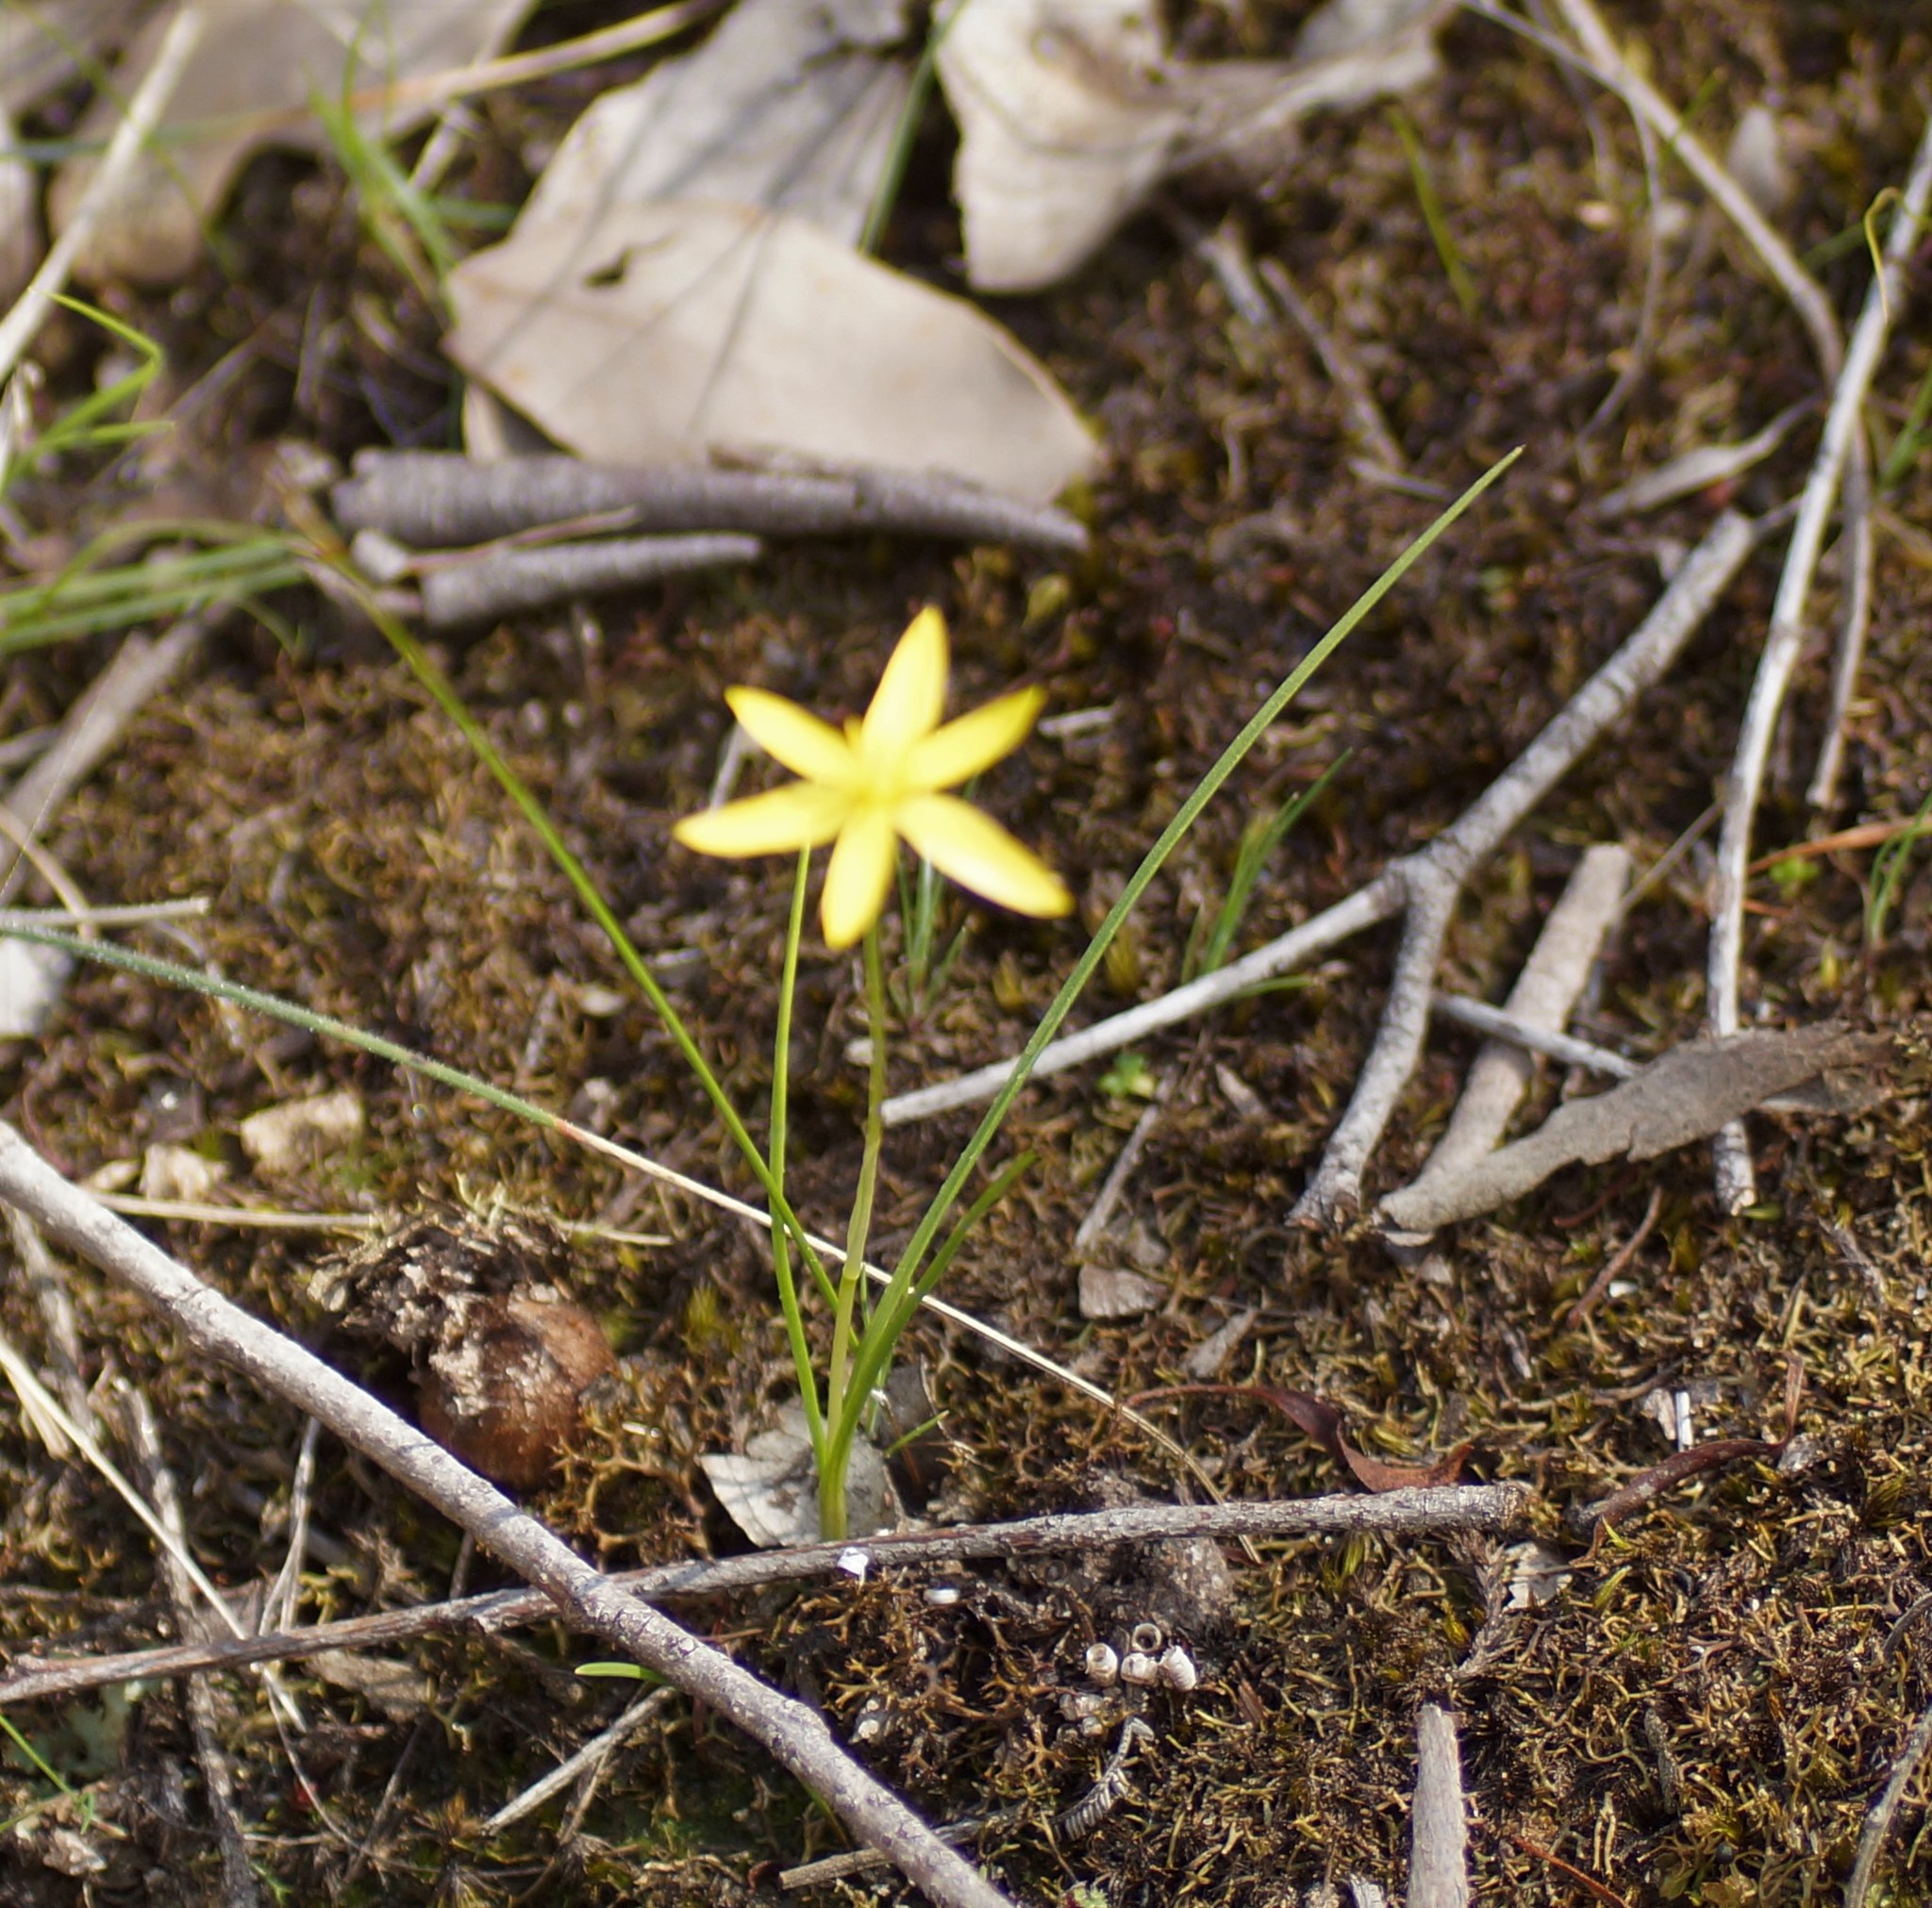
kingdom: Plantae
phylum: Tracheophyta
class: Liliopsida
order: Asparagales
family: Hypoxidaceae
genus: Pauridia
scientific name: Pauridia vaginata
